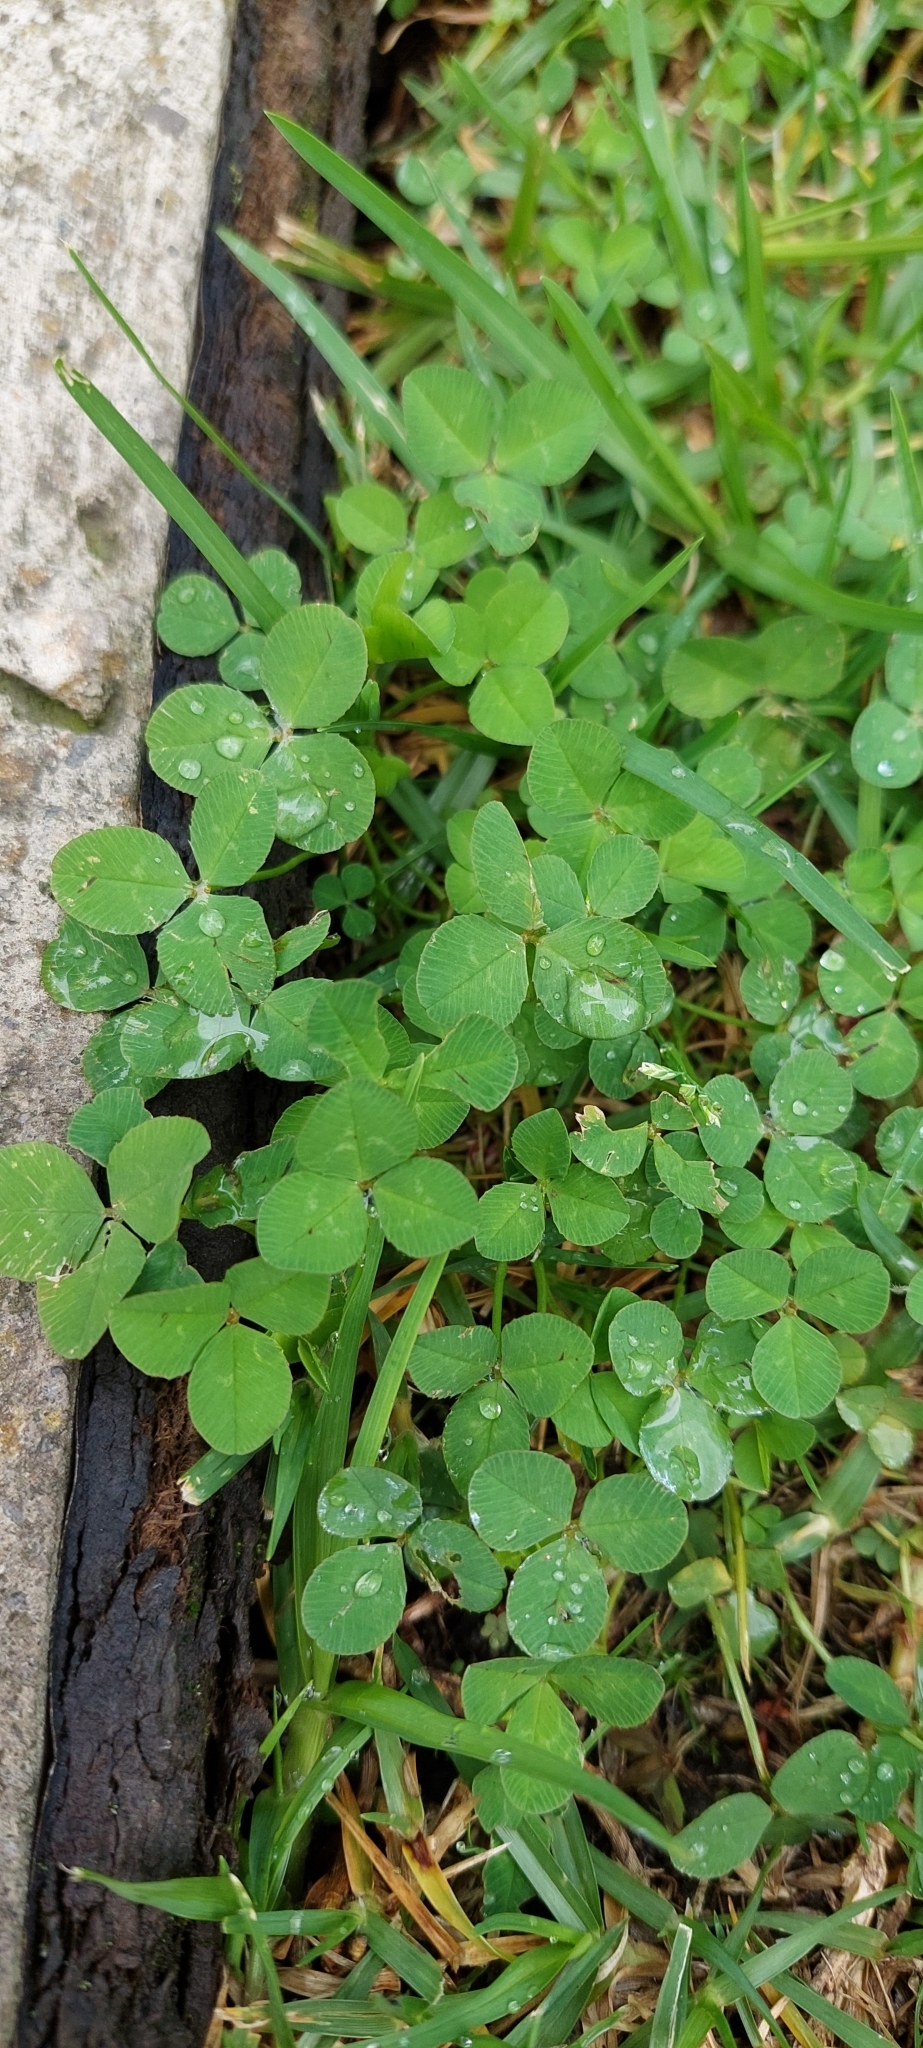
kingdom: Plantae
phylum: Tracheophyta
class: Magnoliopsida
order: Fabales
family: Fabaceae
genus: Trifolium
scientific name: Trifolium repens
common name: White clover
